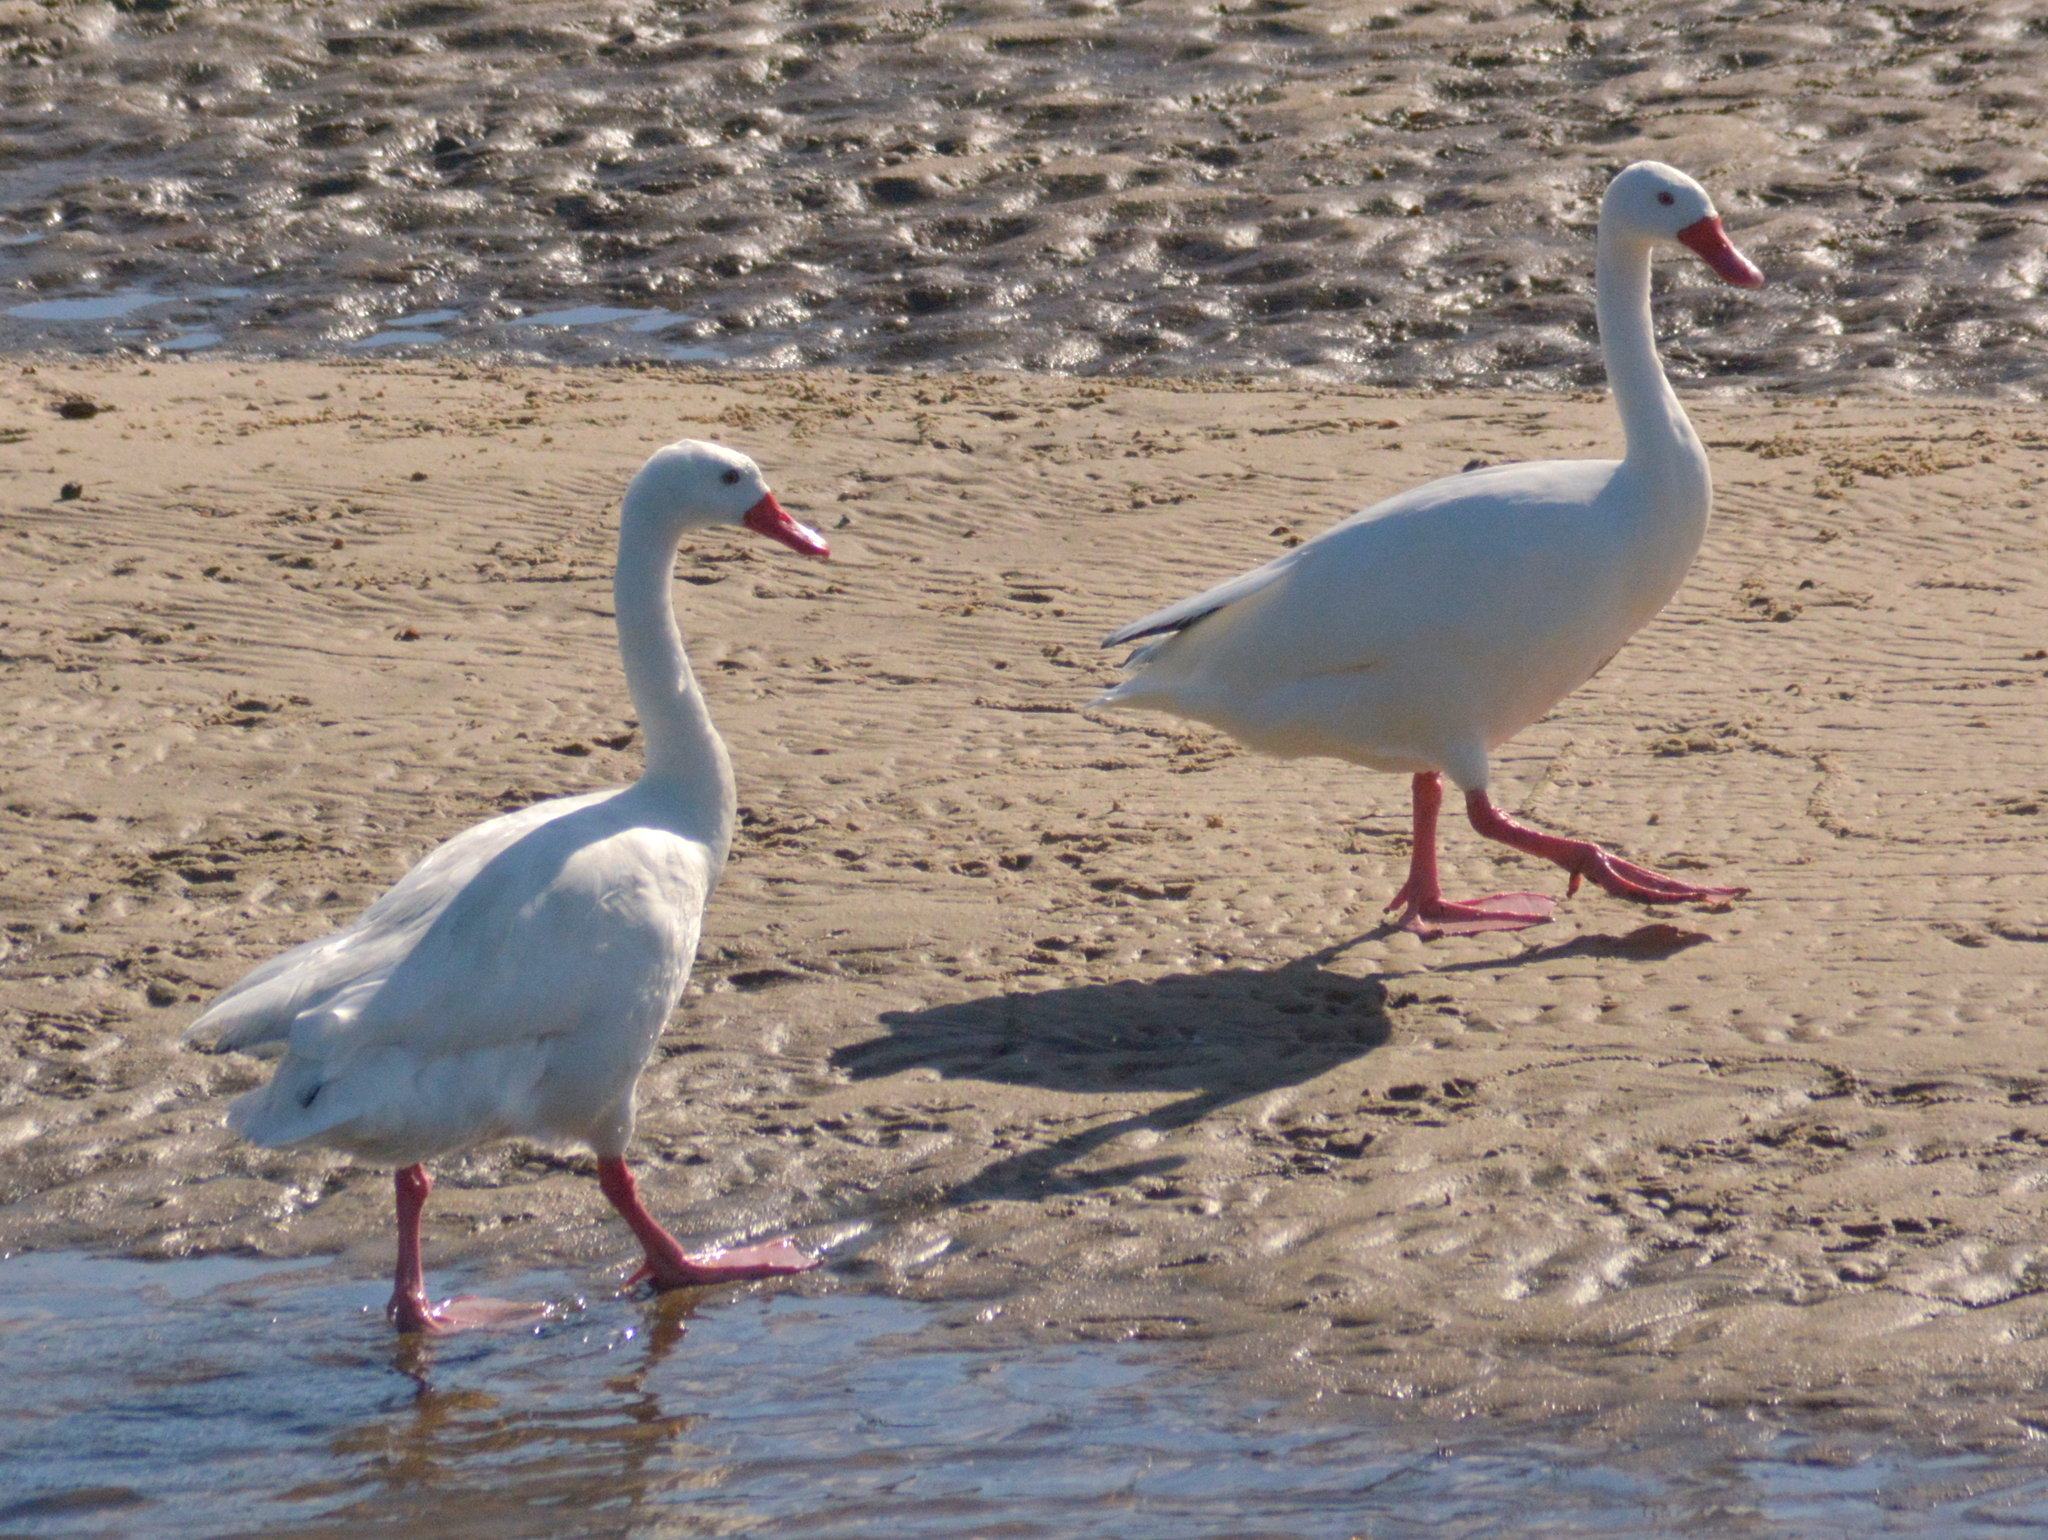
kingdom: Animalia
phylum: Chordata
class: Aves
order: Anseriformes
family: Anatidae
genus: Coscoroba
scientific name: Coscoroba coscoroba
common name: Coscoroba swan
